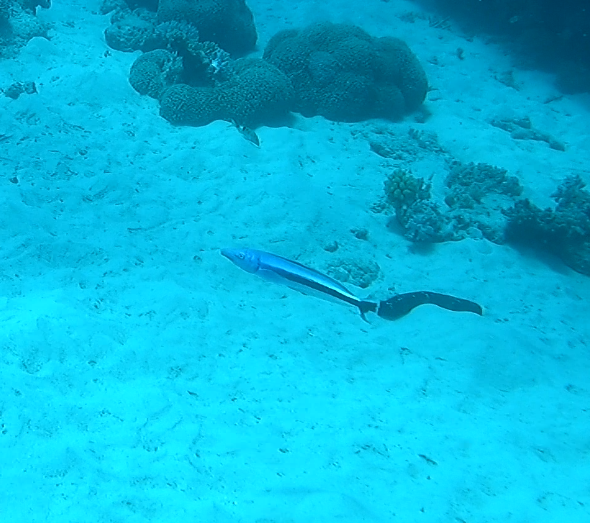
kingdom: Animalia
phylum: Chordata
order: Perciformes
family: Malacanthidae
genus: Malacanthus
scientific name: Malacanthus latovittatus
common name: Blue blanquillo
